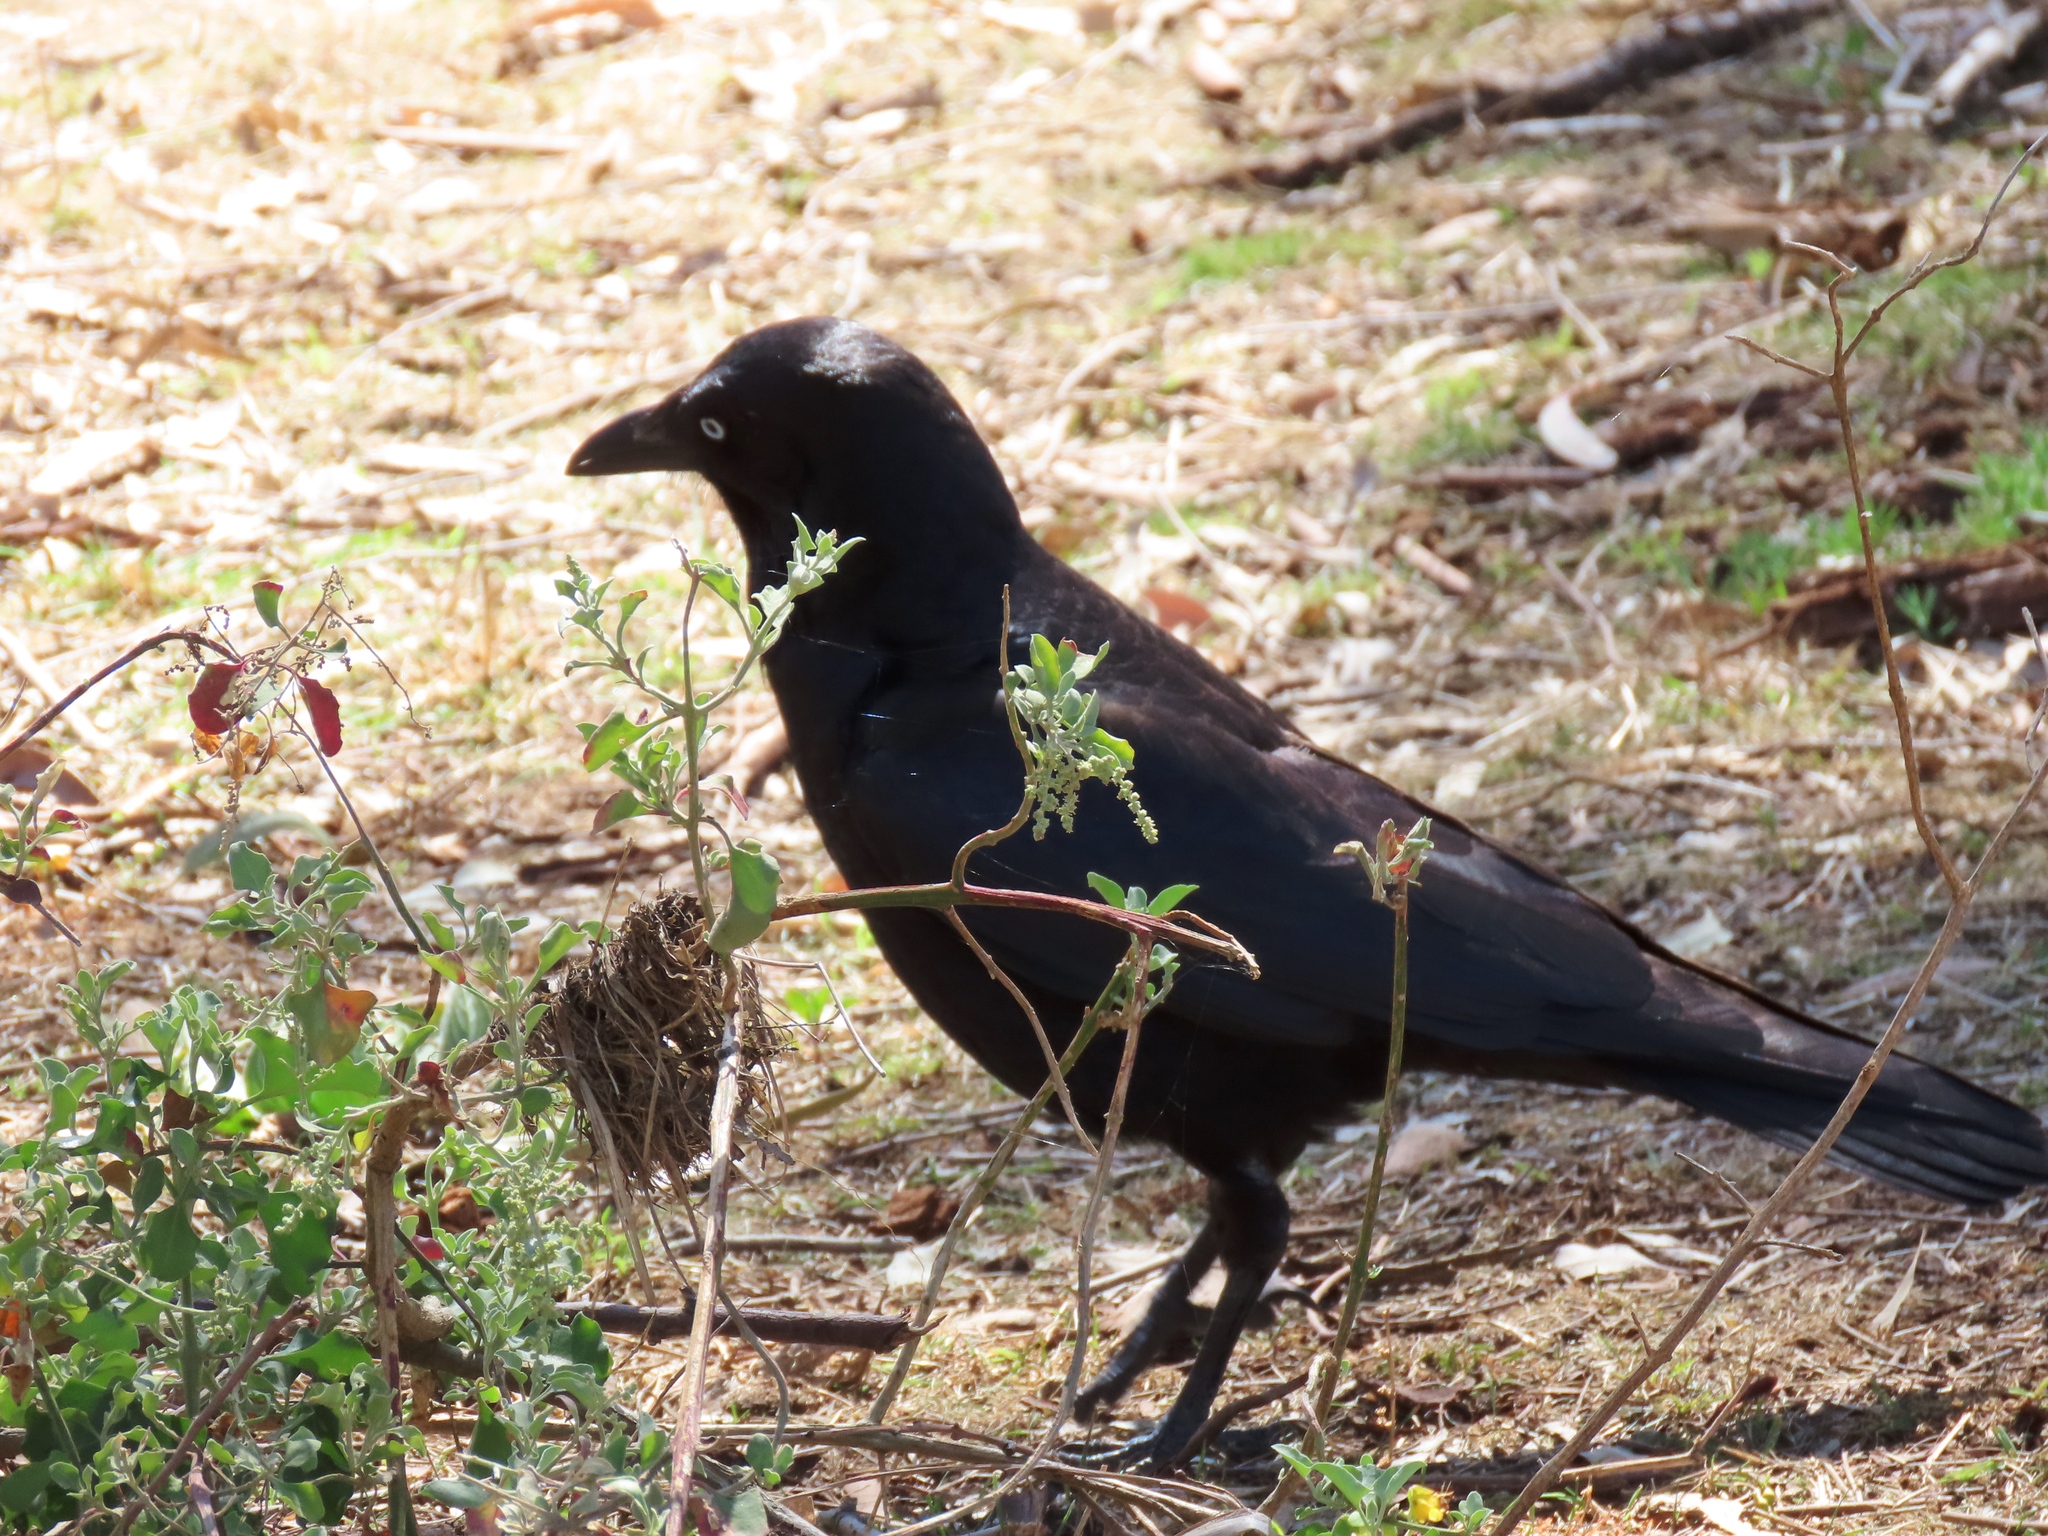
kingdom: Animalia
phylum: Chordata
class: Aves
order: Passeriformes
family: Corvidae
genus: Corvus
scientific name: Corvus mellori
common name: Little raven
